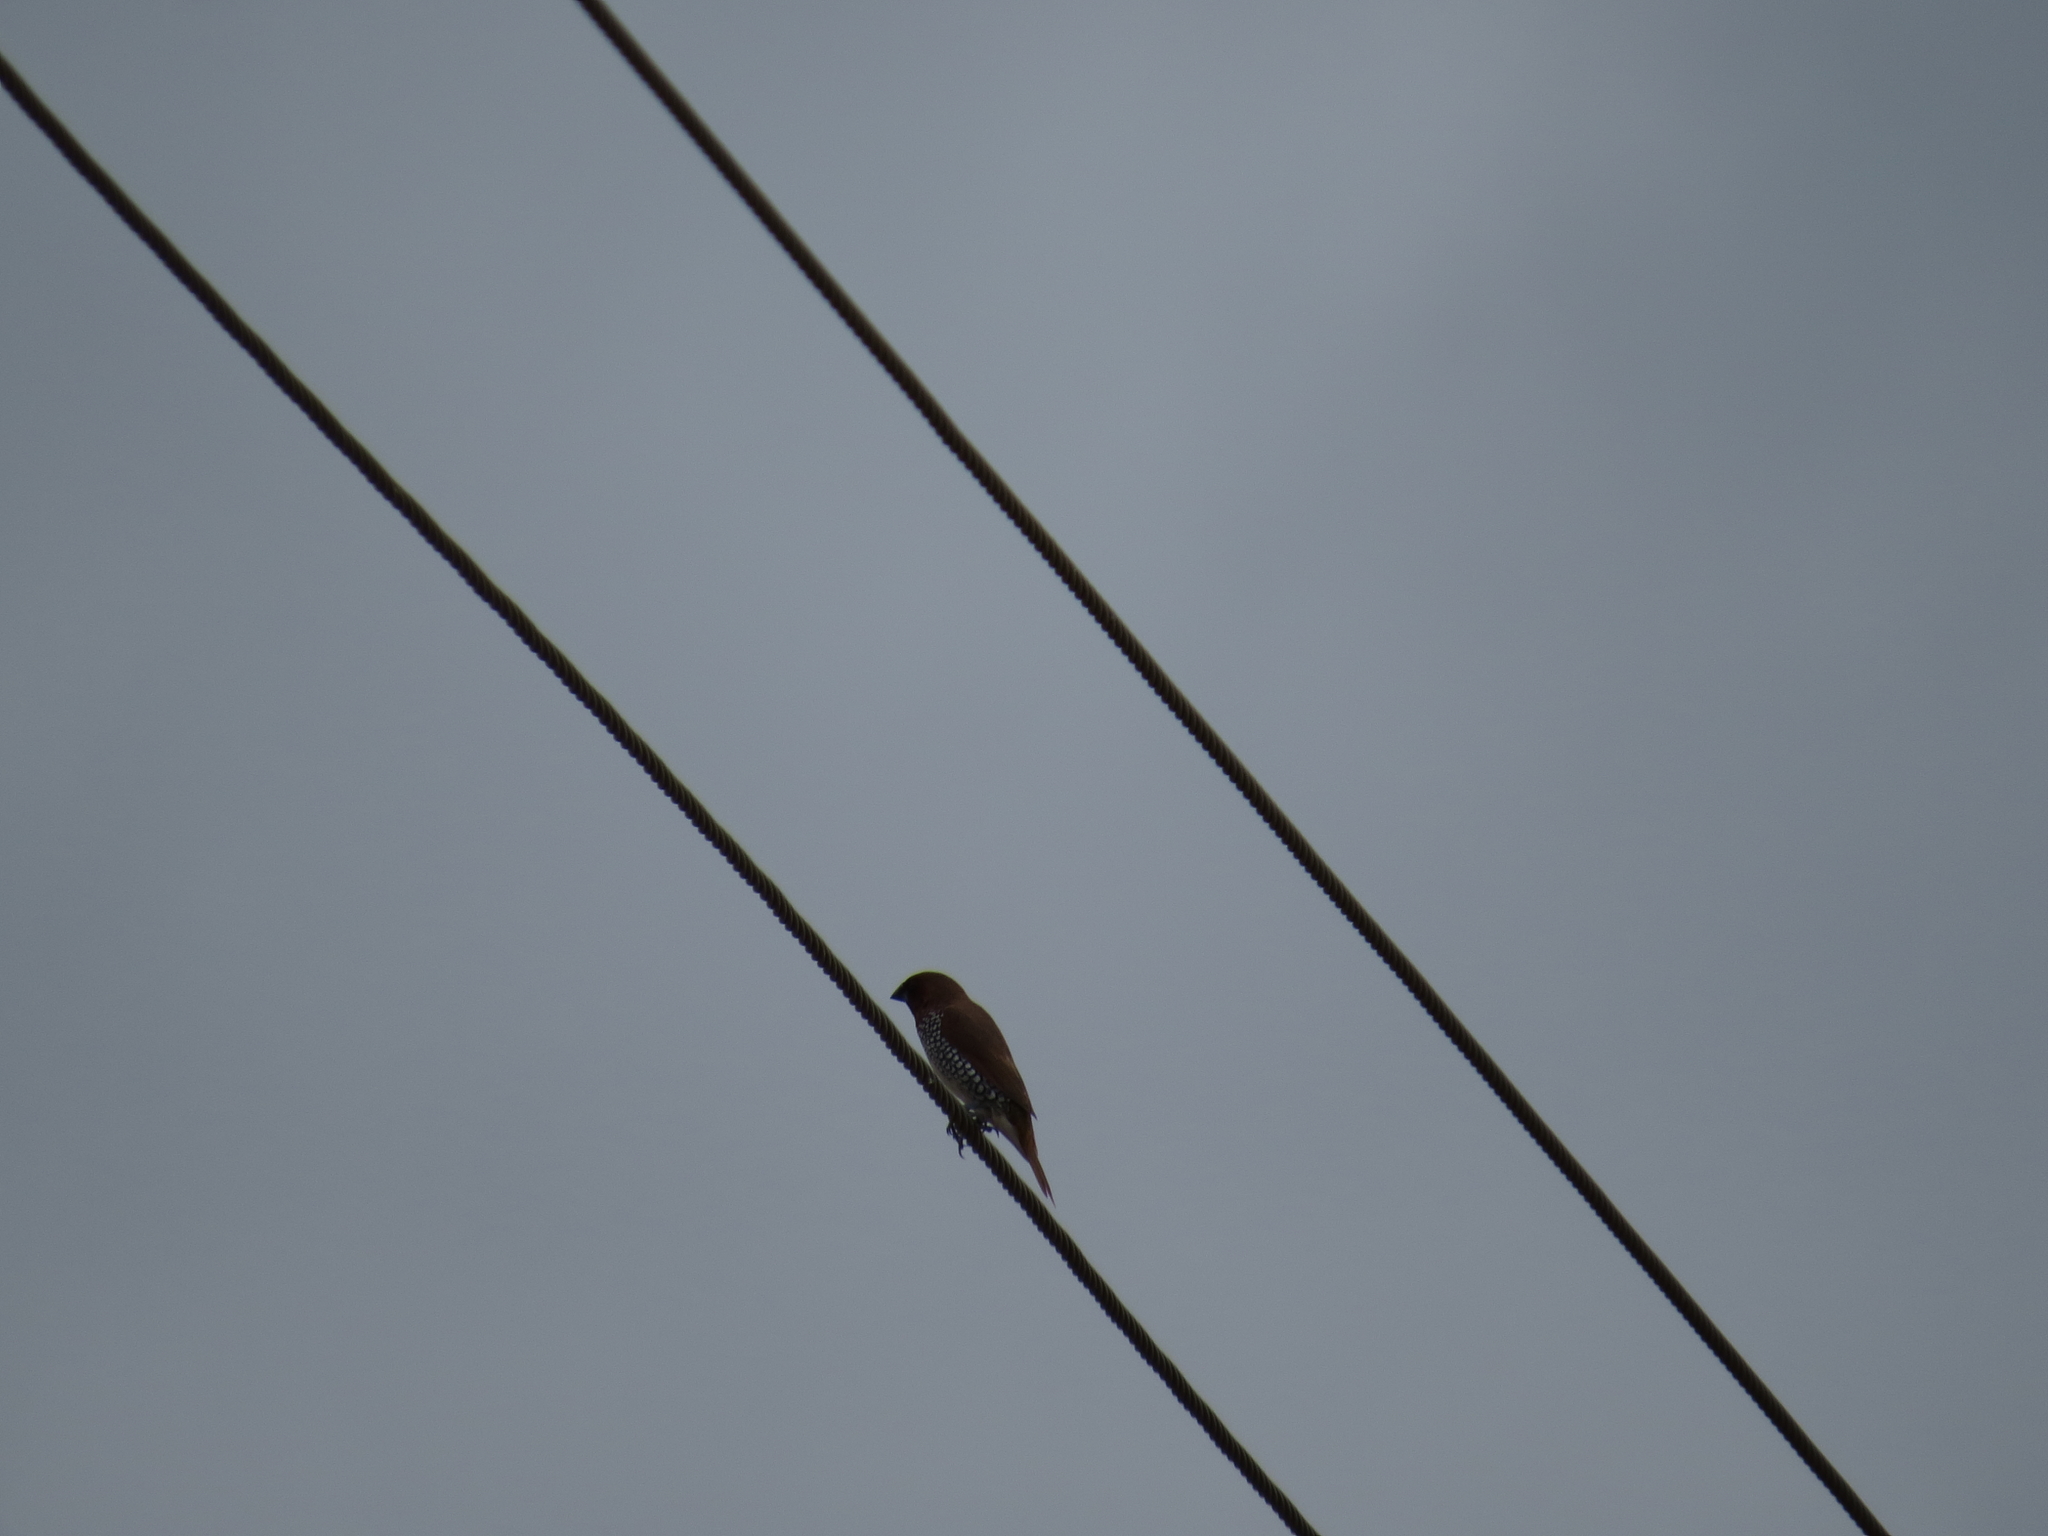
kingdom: Animalia
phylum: Chordata
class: Aves
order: Passeriformes
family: Estrildidae
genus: Lonchura
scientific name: Lonchura punctulata
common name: Scaly-breasted munia
